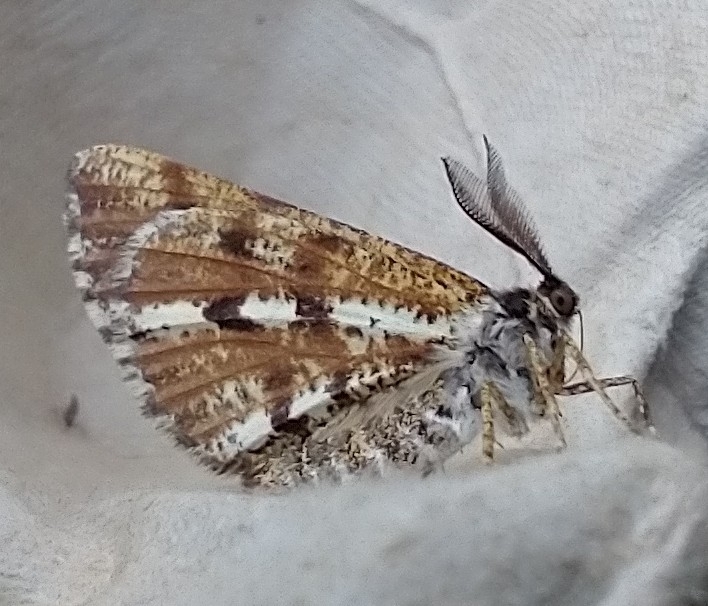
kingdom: Animalia
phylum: Arthropoda
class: Insecta
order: Lepidoptera
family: Geometridae
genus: Bupalus
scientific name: Bupalus piniaria
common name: Bordered white
